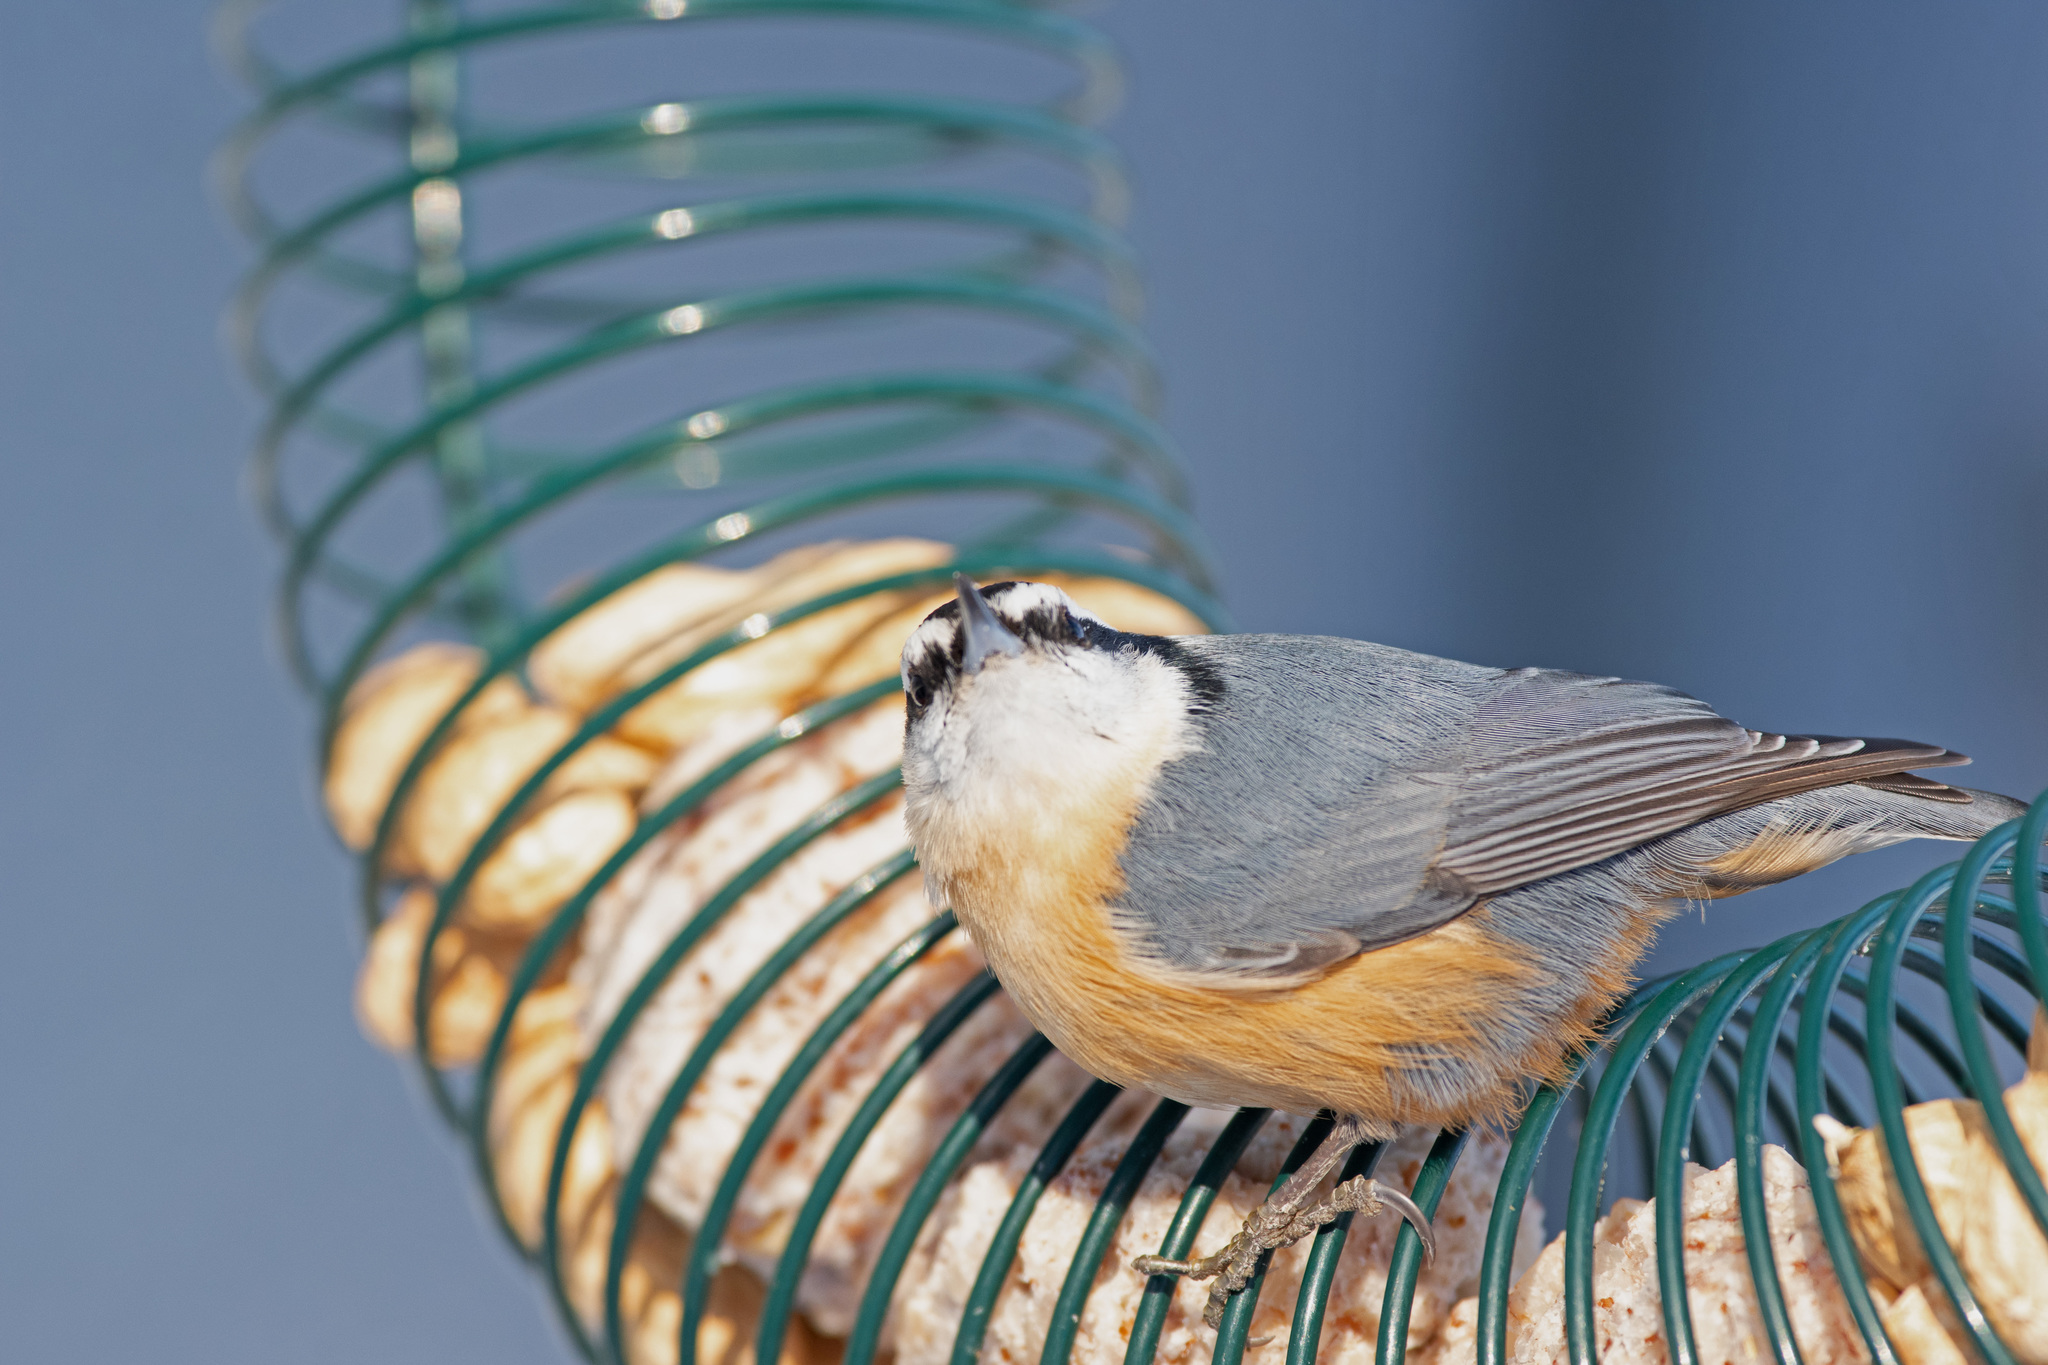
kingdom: Animalia
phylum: Chordata
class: Aves
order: Passeriformes
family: Sittidae
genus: Sitta
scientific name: Sitta canadensis
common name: Red-breasted nuthatch
